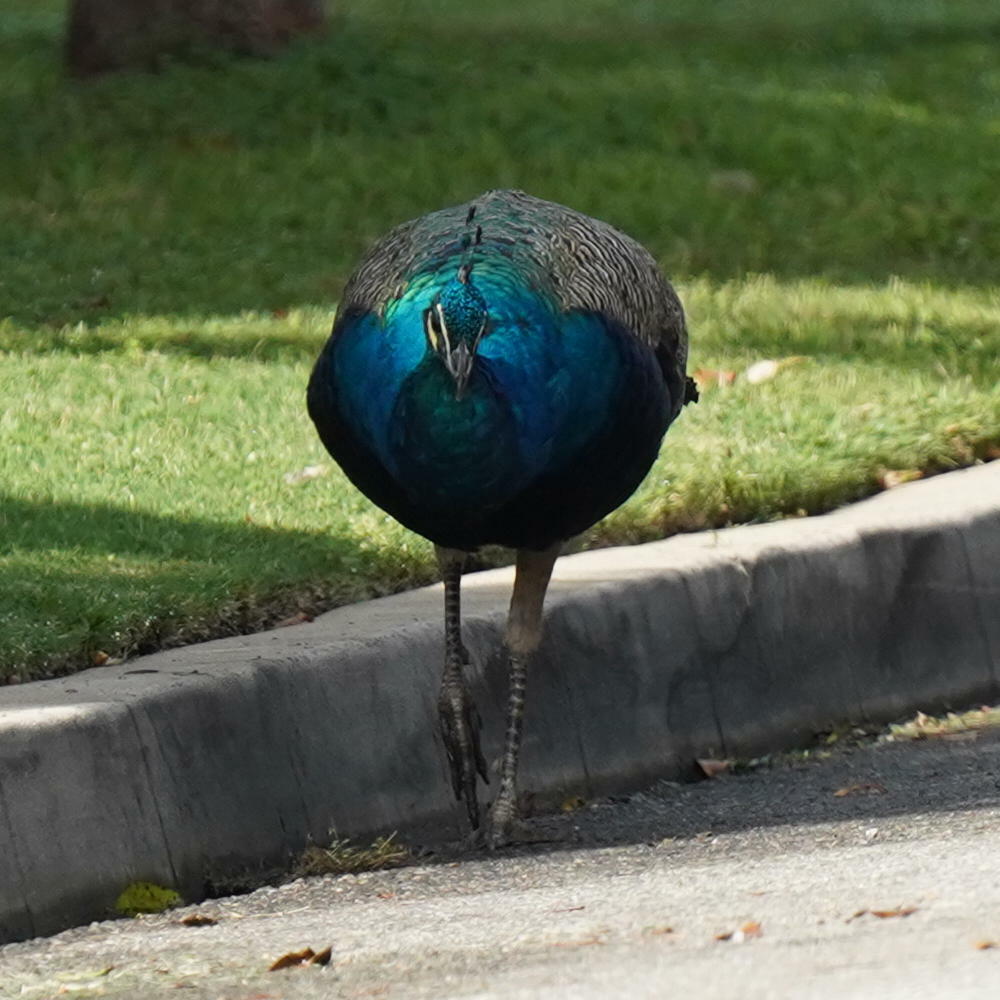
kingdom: Animalia
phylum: Chordata
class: Aves
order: Galliformes
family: Phasianidae
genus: Pavo
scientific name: Pavo cristatus
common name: Indian peafowl
